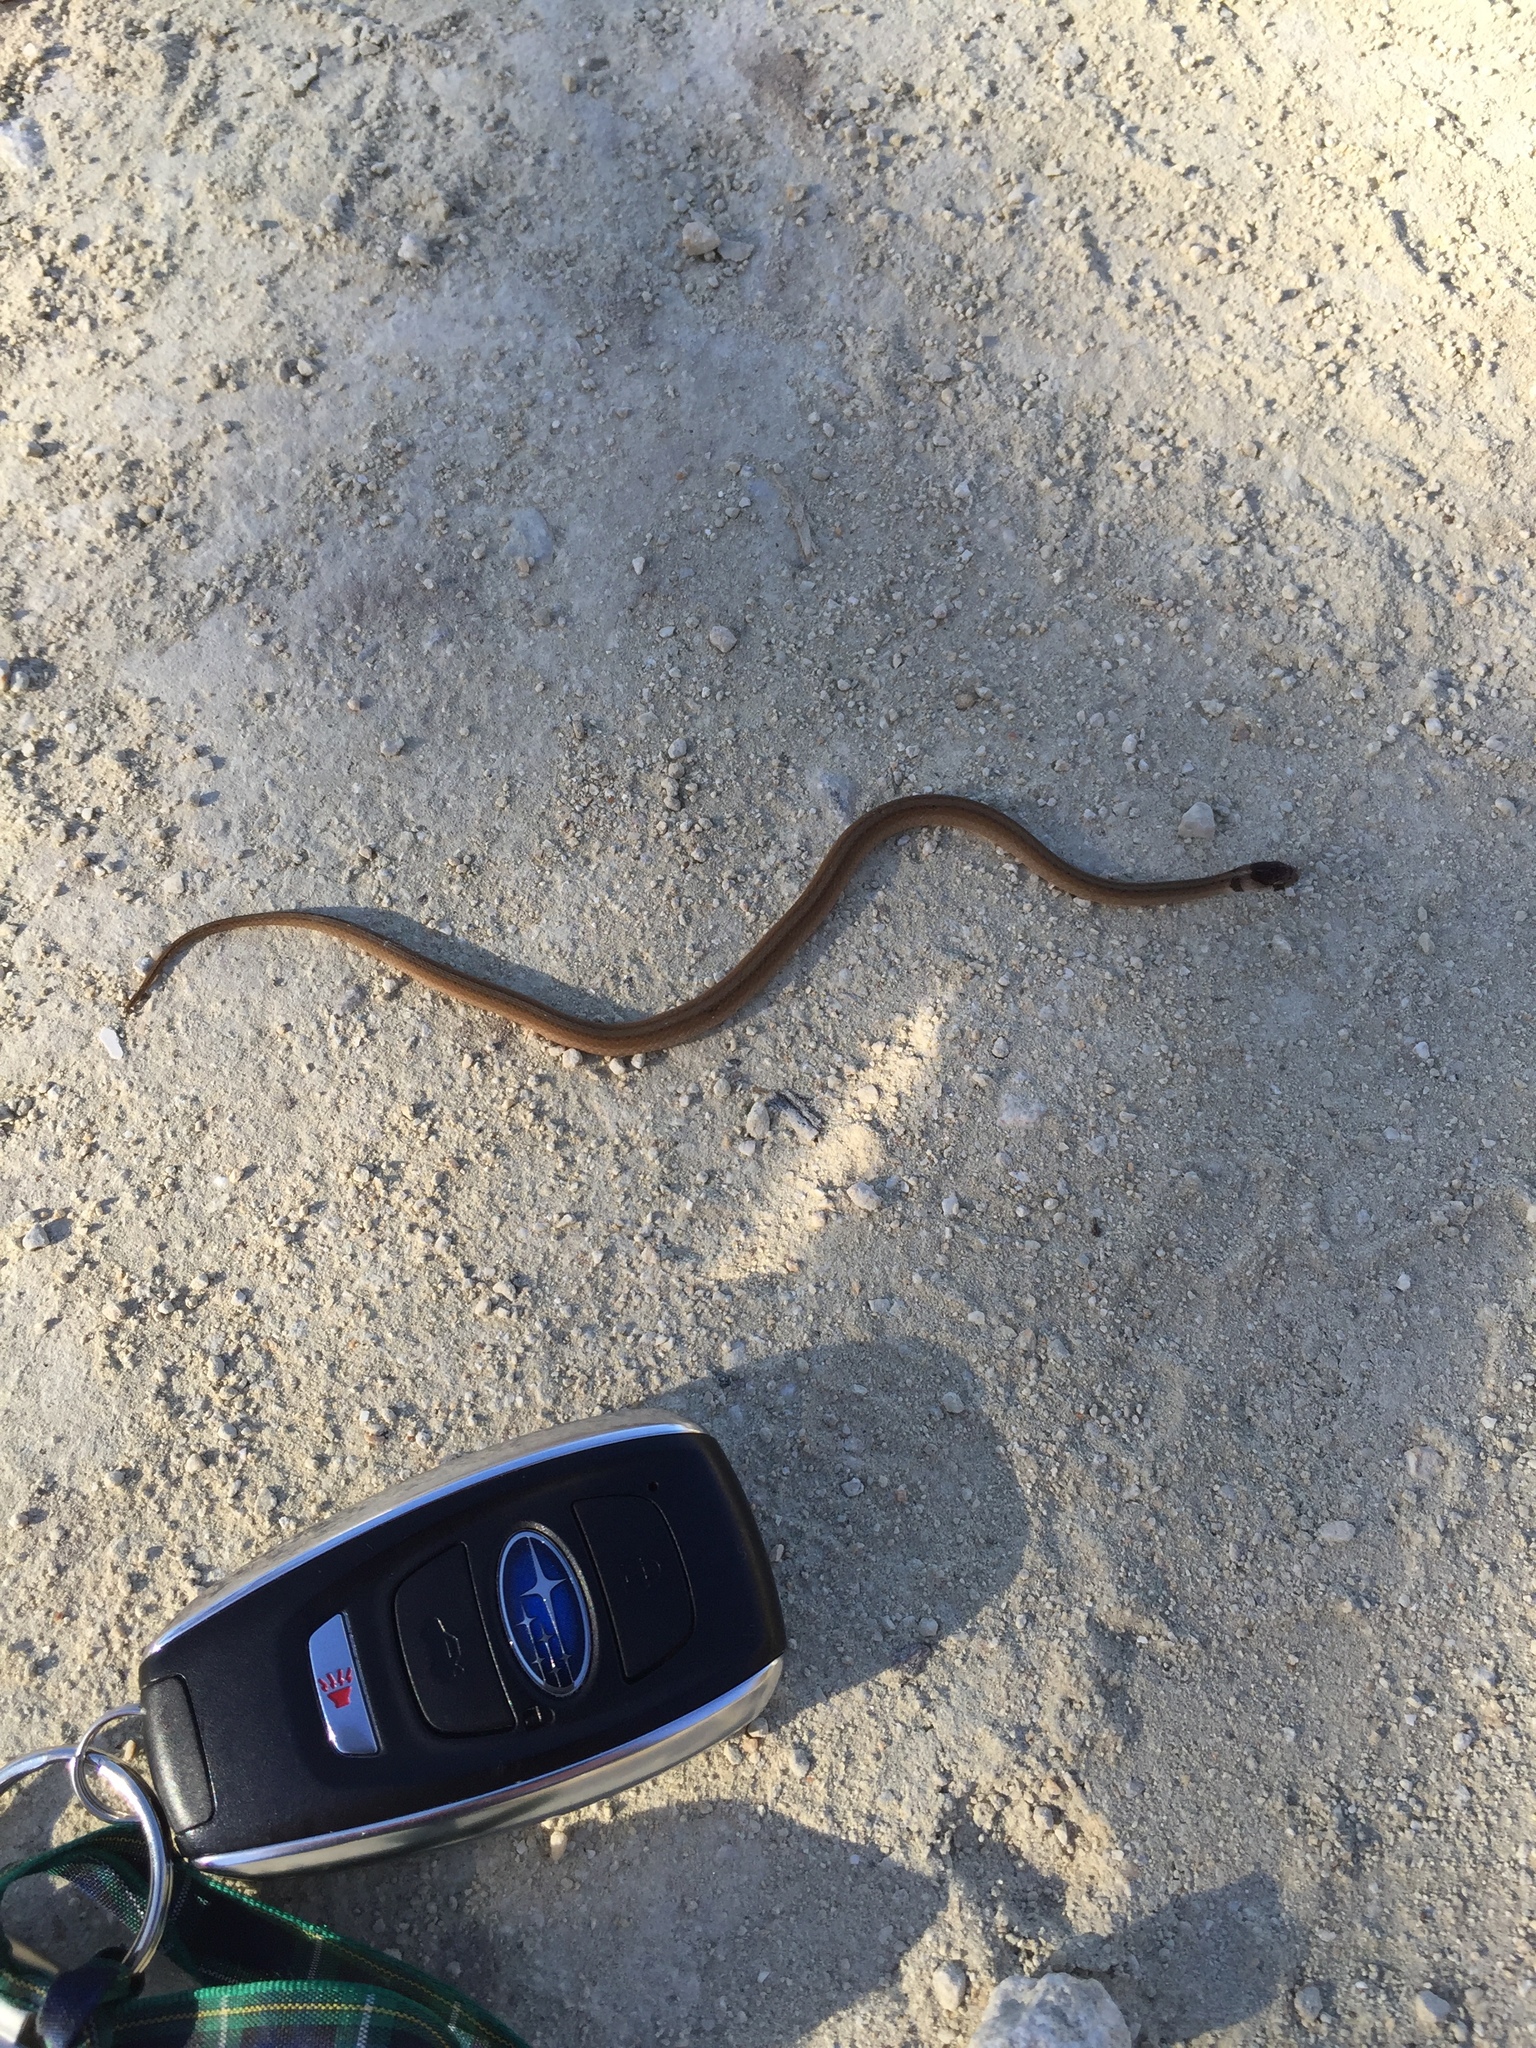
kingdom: Animalia
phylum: Chordata
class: Squamata
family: Colubridae
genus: Storeria
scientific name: Storeria dekayi
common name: (dekay’s) brown snake
